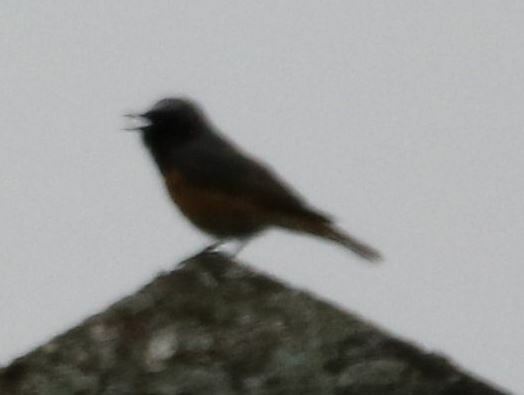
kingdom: Animalia
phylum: Chordata
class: Aves
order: Passeriformes
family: Muscicapidae
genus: Phoenicurus
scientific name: Phoenicurus phoenicurus
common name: Common redstart
